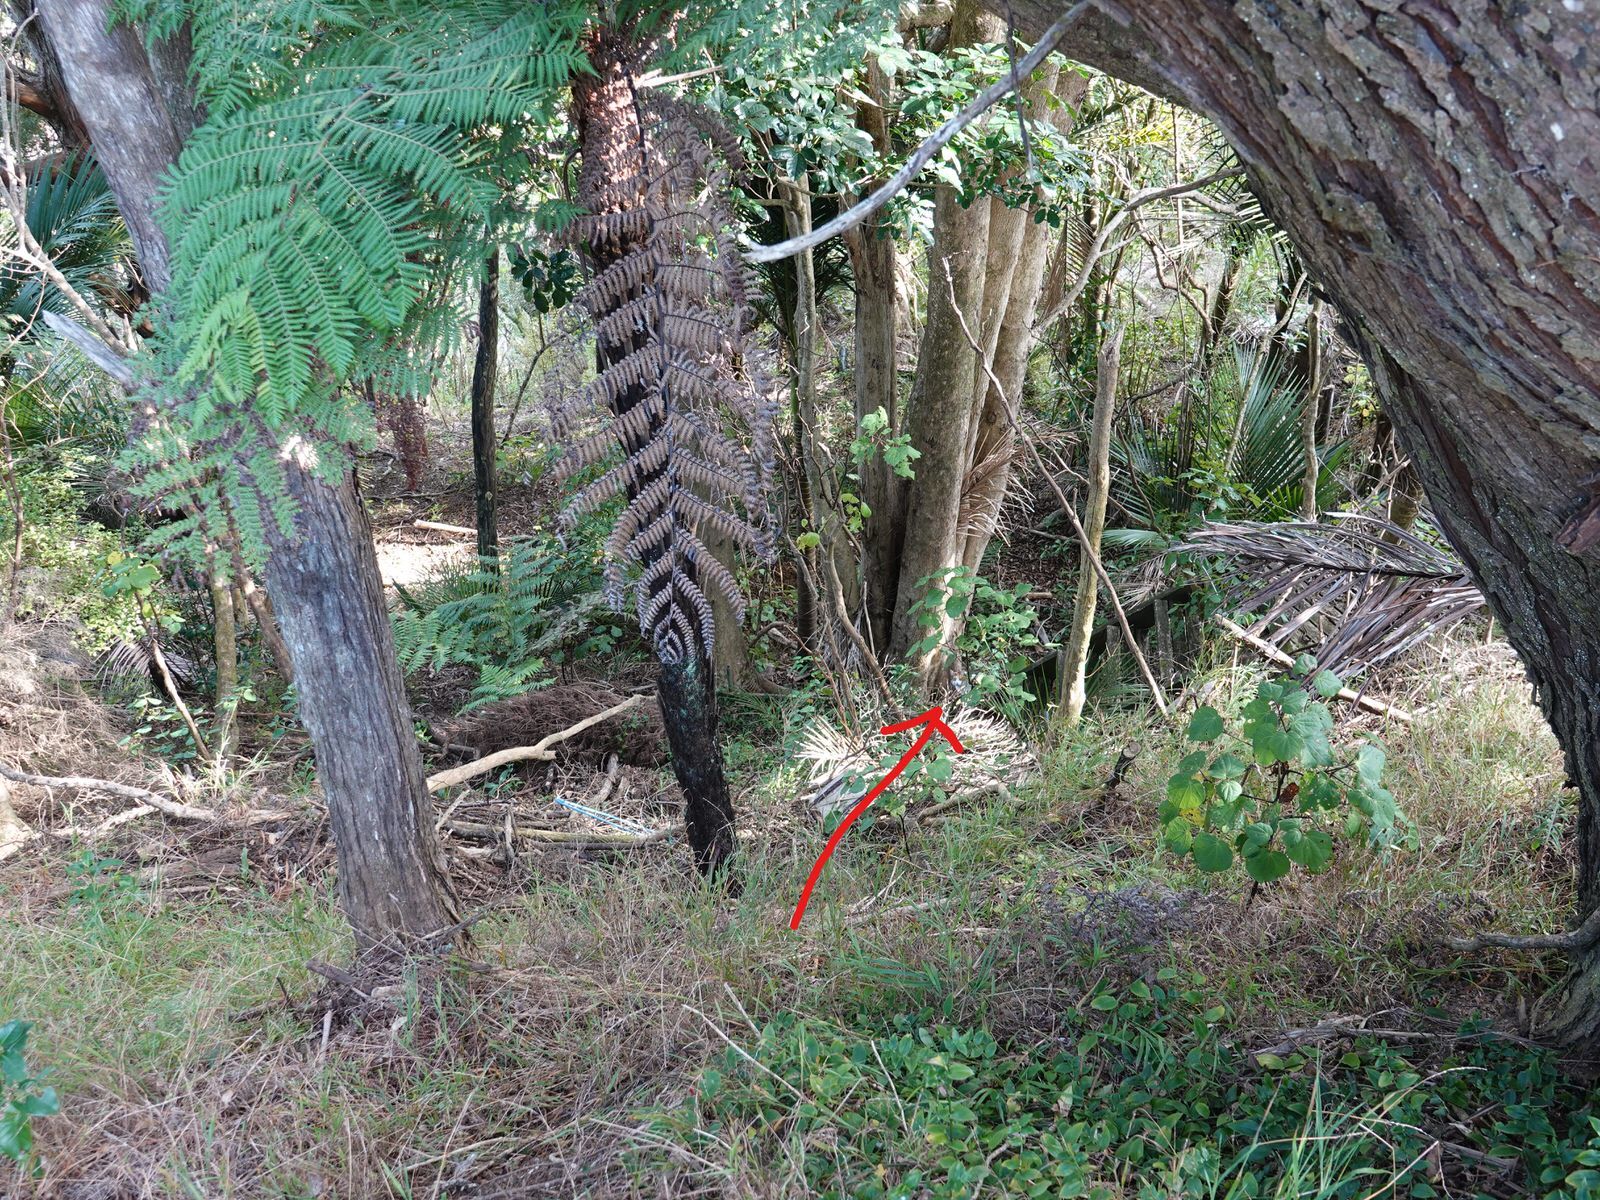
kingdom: Animalia
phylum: Chordata
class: Mammalia
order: Carnivora
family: Felidae
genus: Felis
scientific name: Felis catus
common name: Domestic cat
